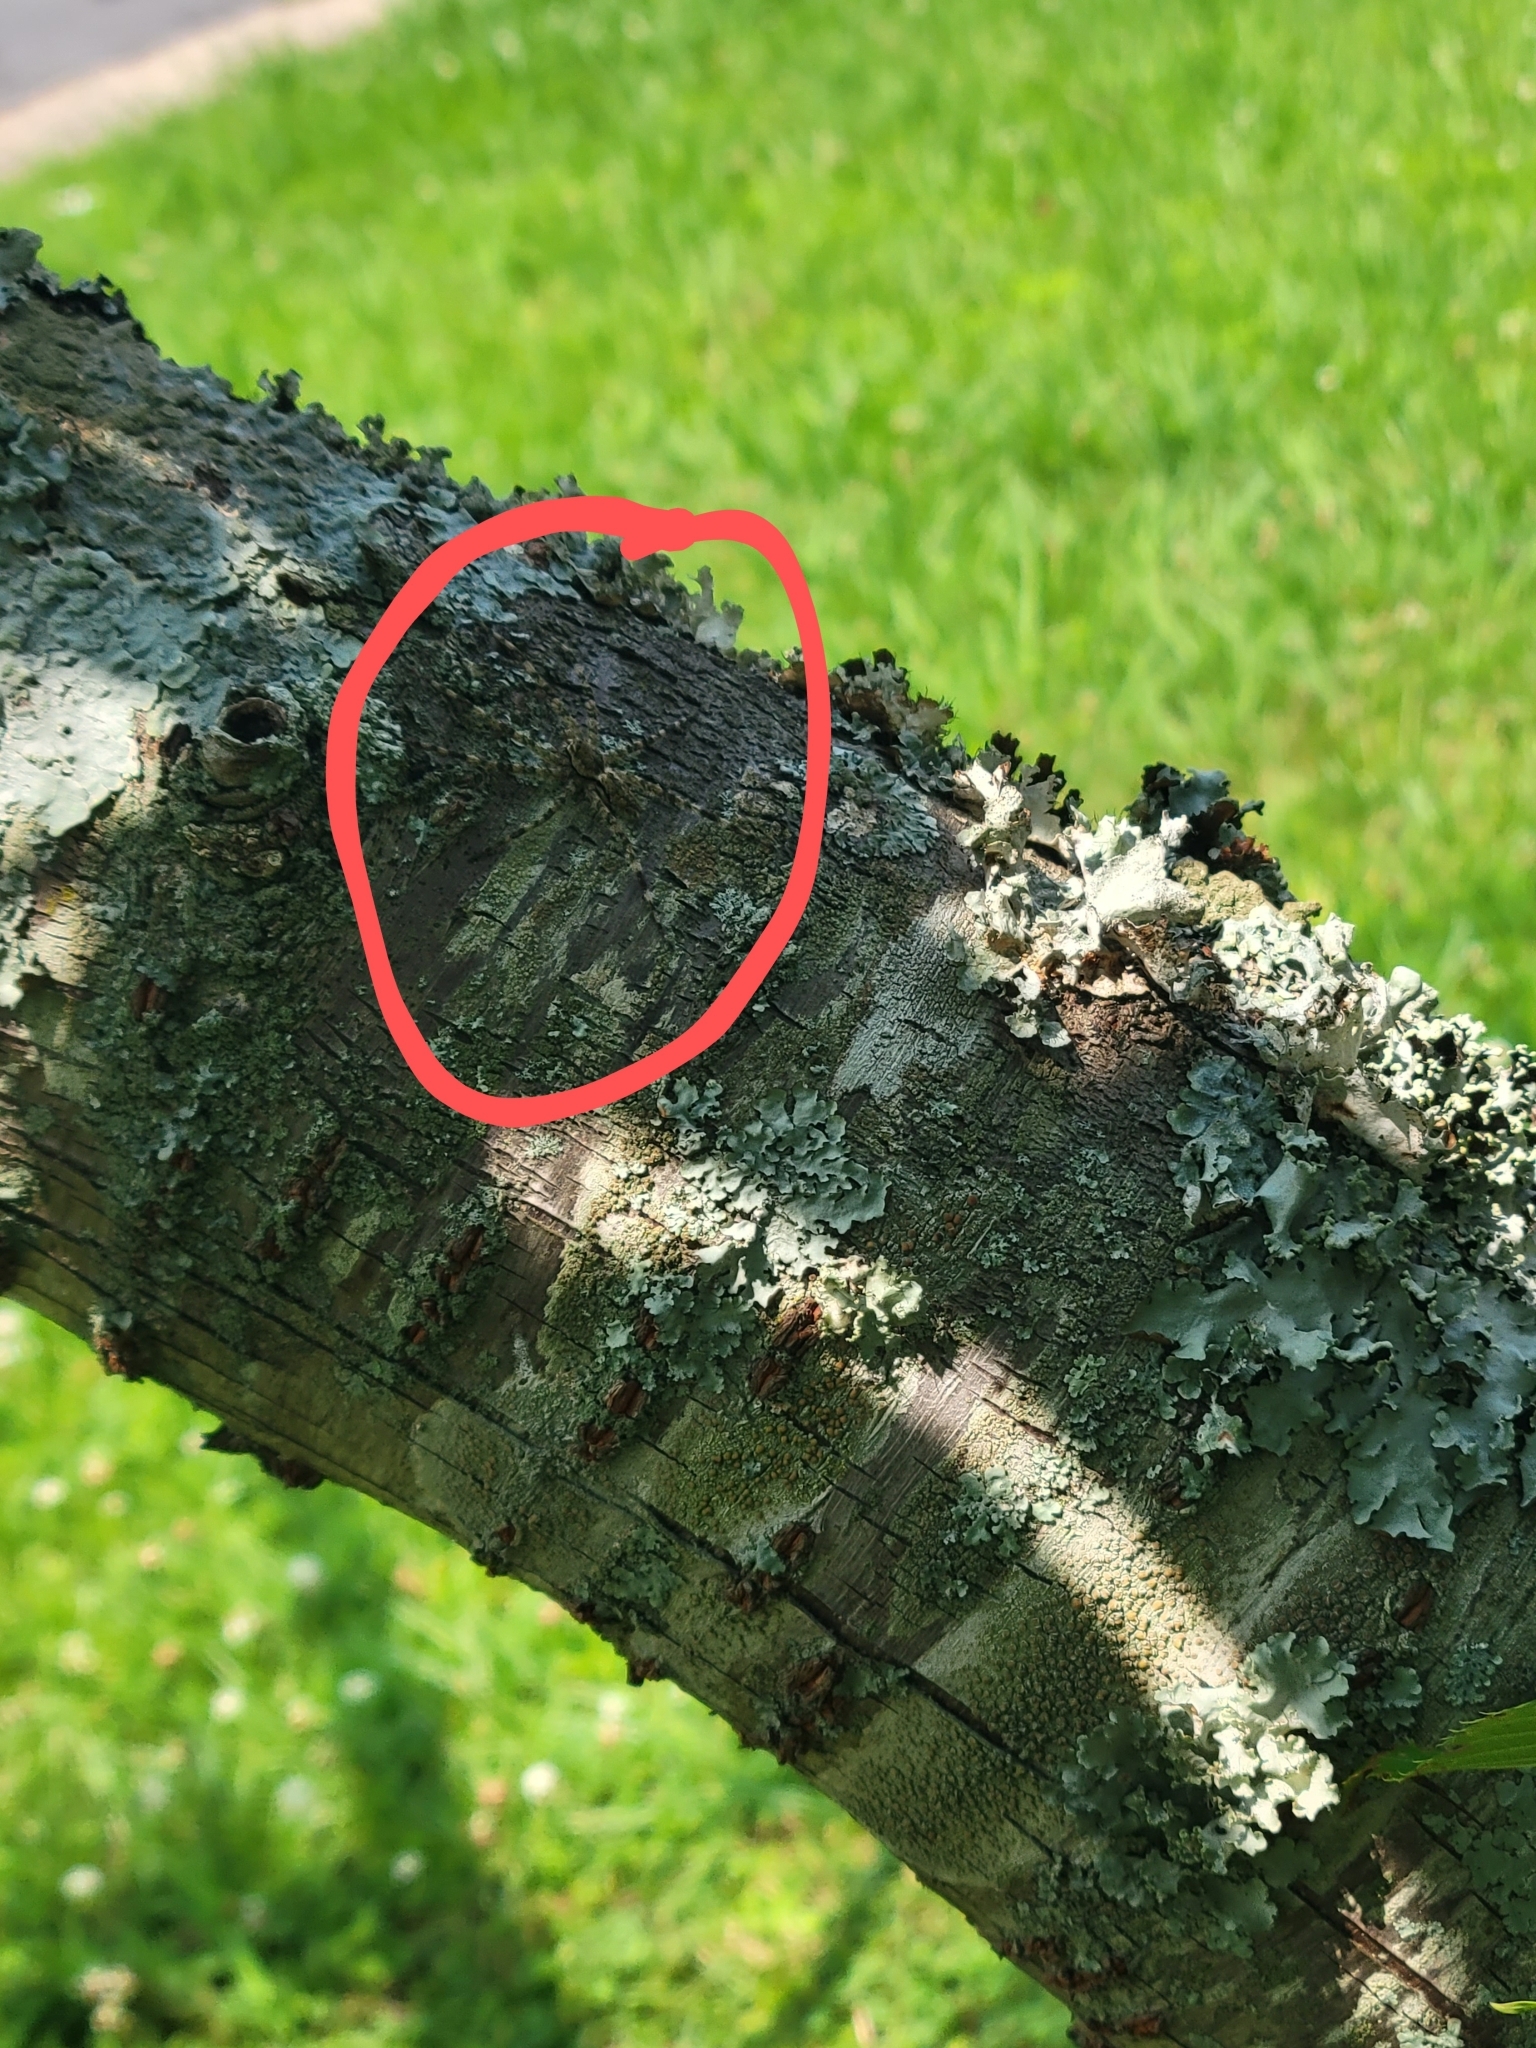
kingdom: Animalia
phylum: Arthropoda
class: Arachnida
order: Araneae
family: Pisauridae
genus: Dolomedes
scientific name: Dolomedes albineus
